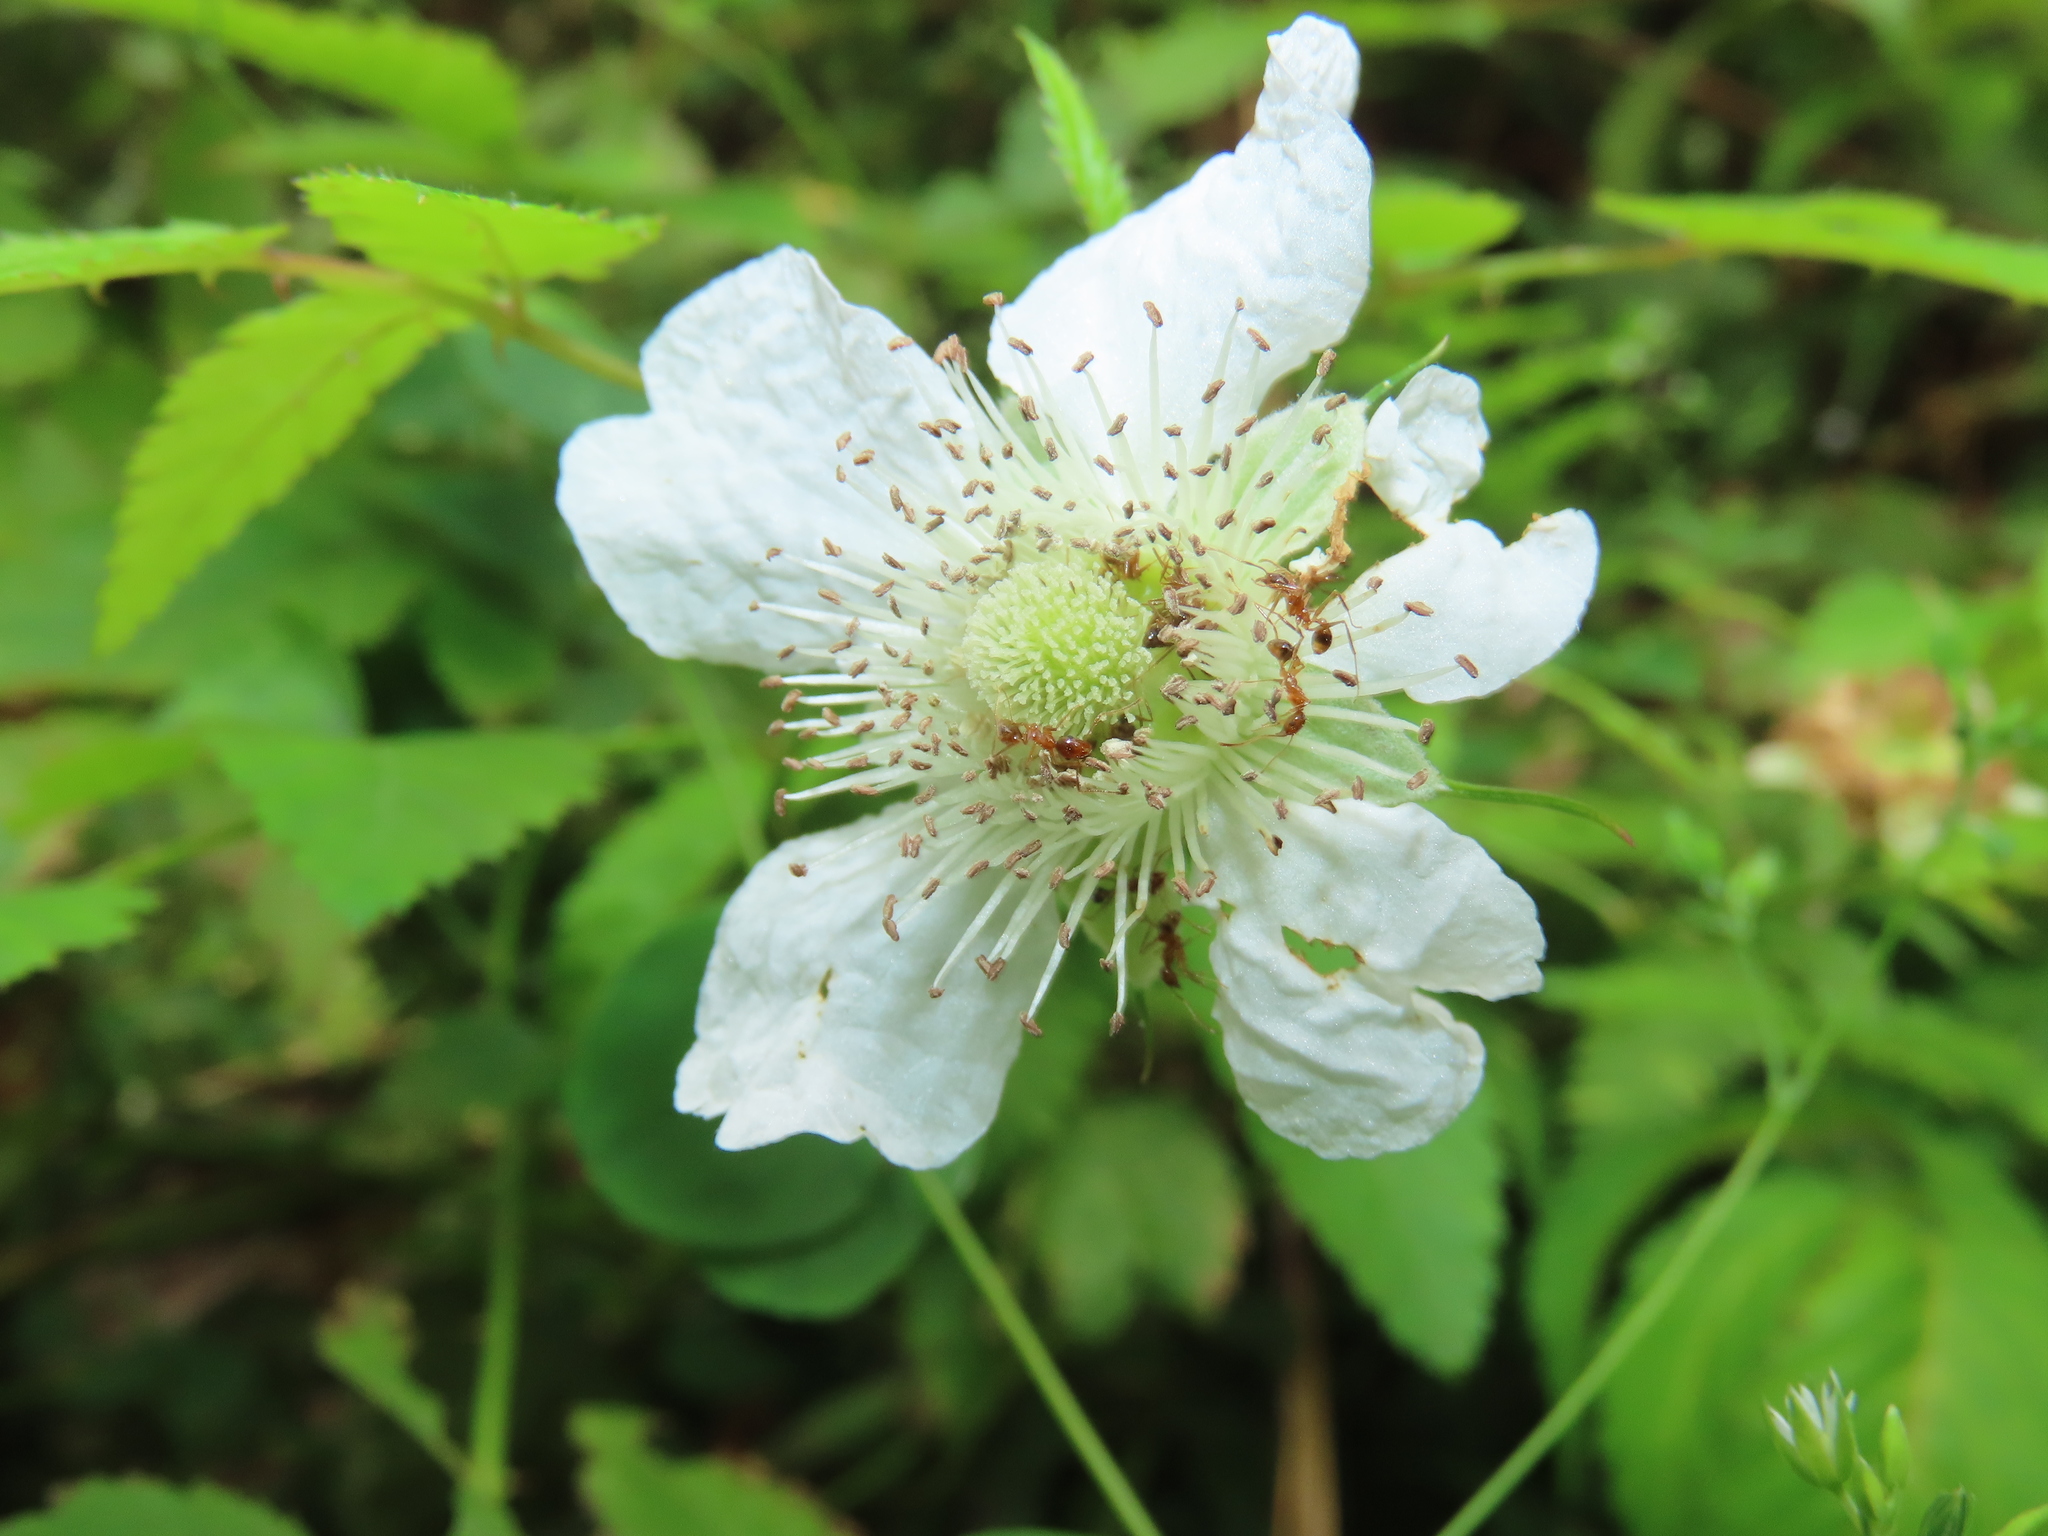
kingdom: Plantae
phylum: Tracheophyta
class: Magnoliopsida
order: Rosales
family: Rosaceae
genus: Rubus
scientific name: Rubus croceacanthus
